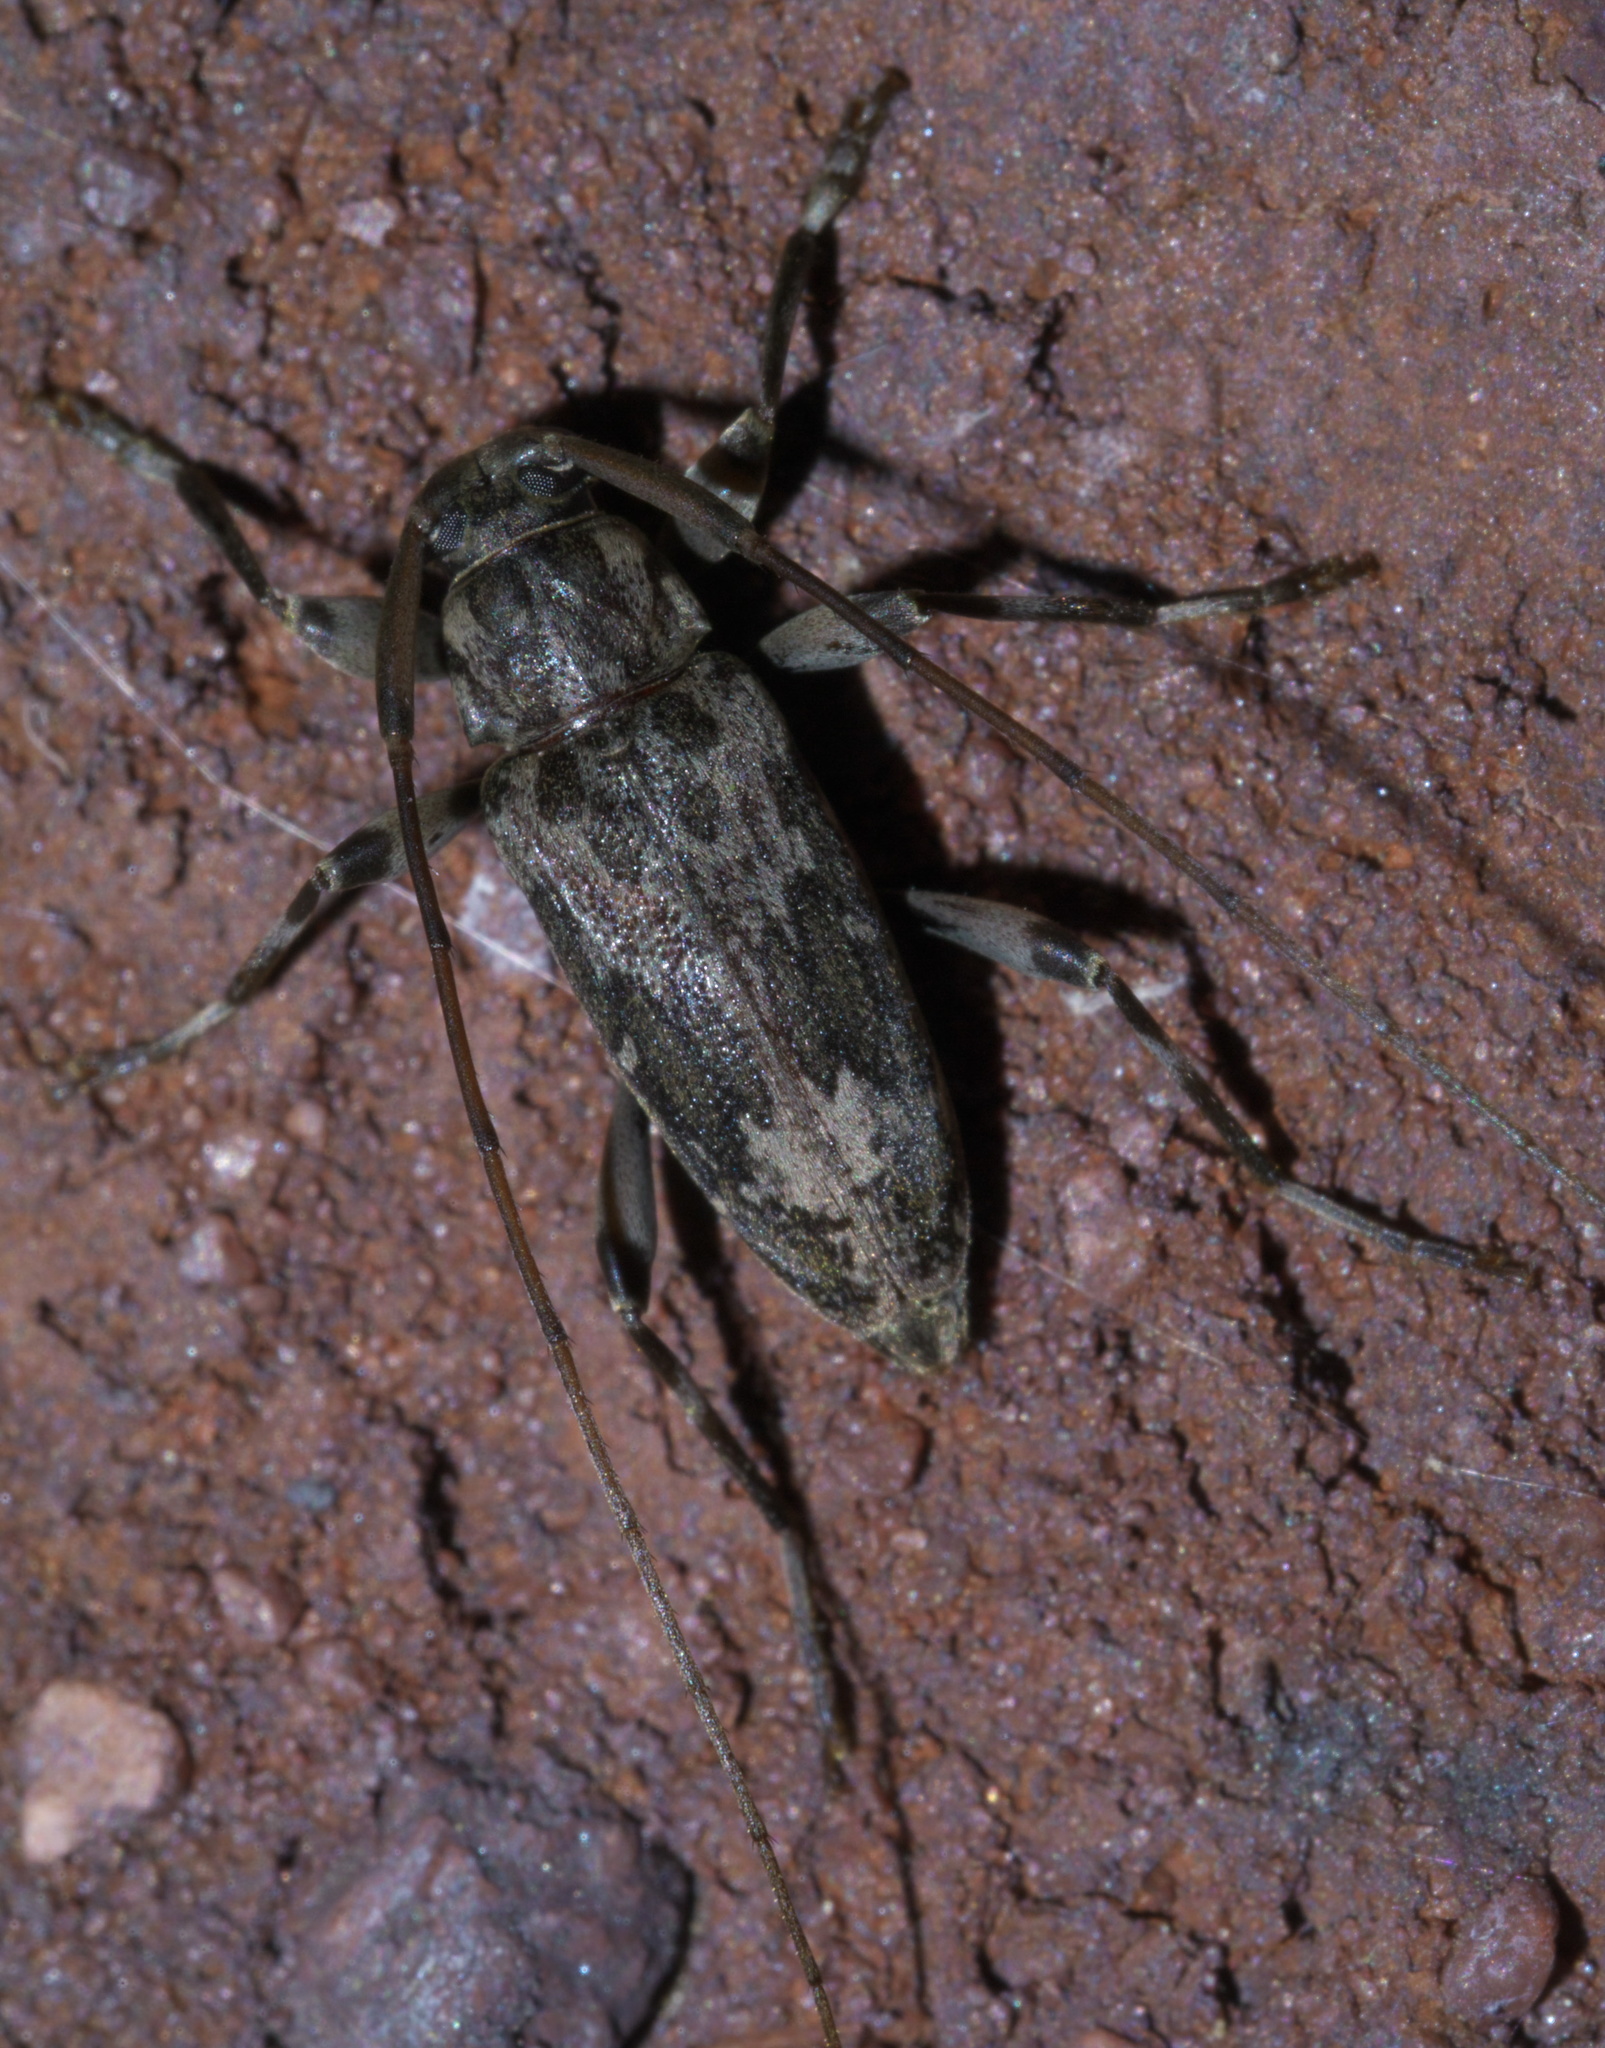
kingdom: Animalia
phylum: Arthropoda
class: Insecta
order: Coleoptera
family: Cerambycidae
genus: Lepturges
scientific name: Lepturges confluens
